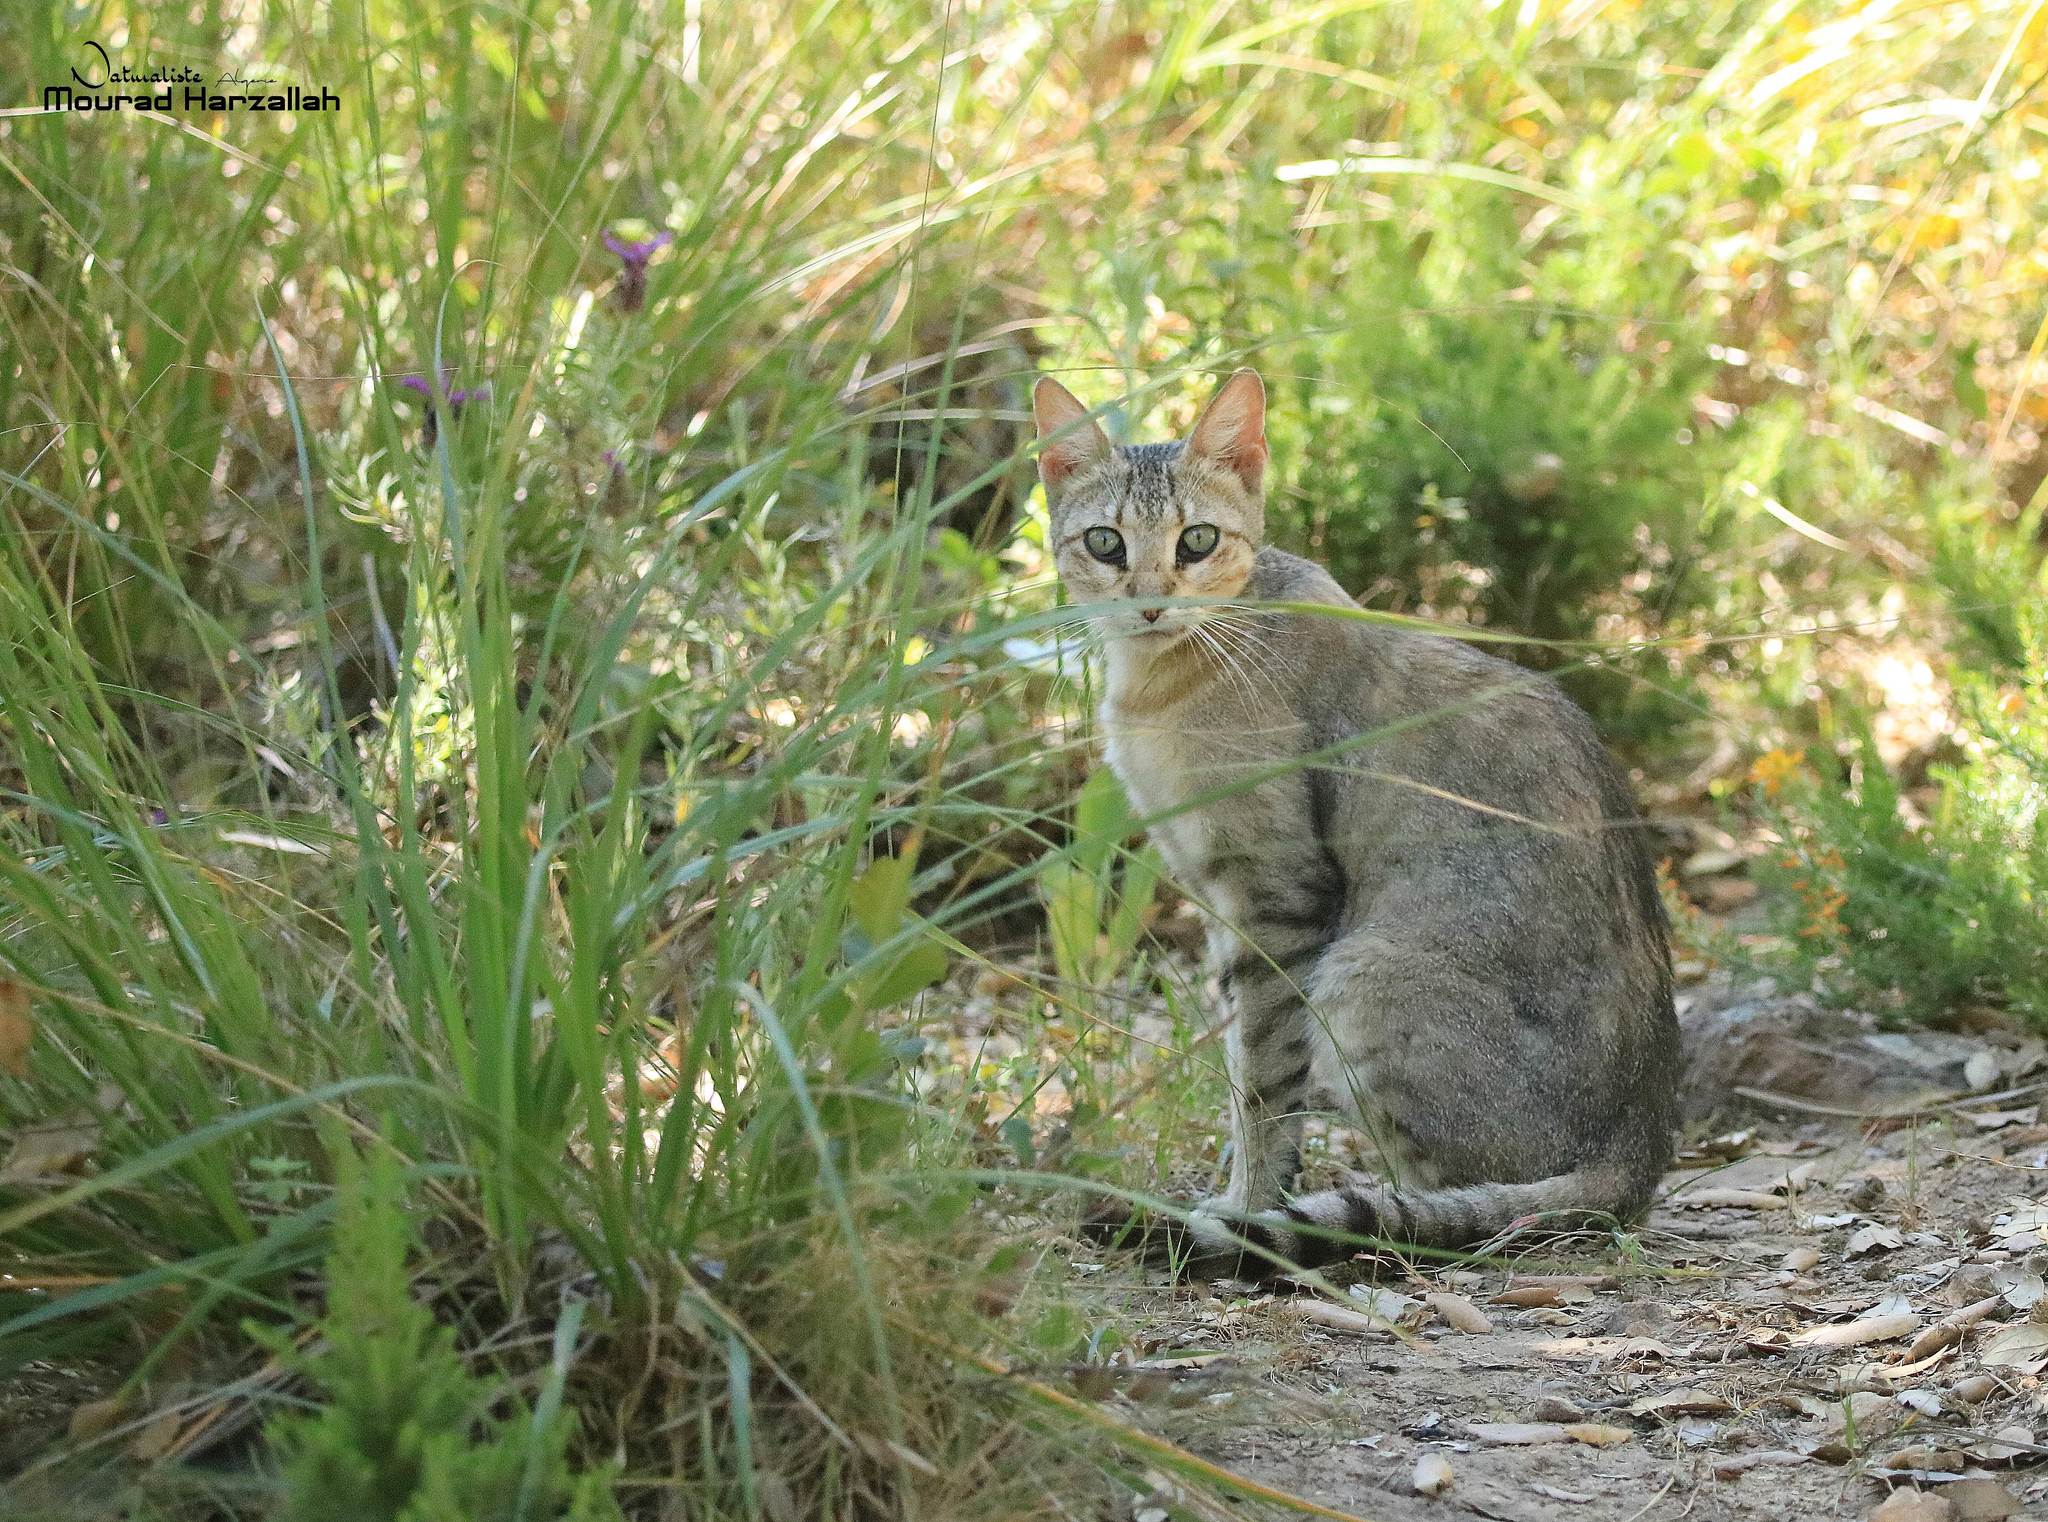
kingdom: Animalia
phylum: Chordata
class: Mammalia
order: Carnivora
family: Felidae
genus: Felis
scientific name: Felis silvestris
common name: Wildcat
